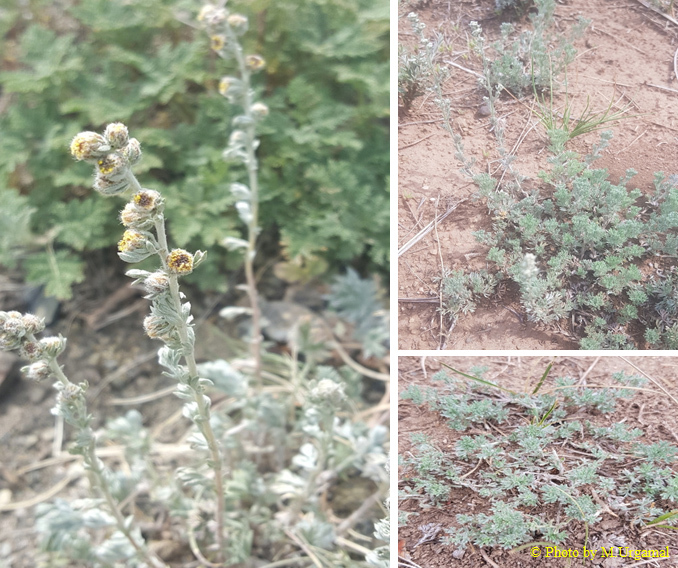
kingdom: Plantae
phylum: Tracheophyta
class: Magnoliopsida
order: Asterales
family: Asteraceae
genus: Artemisia
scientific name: Artemisia frigida
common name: Prairie sagewort
